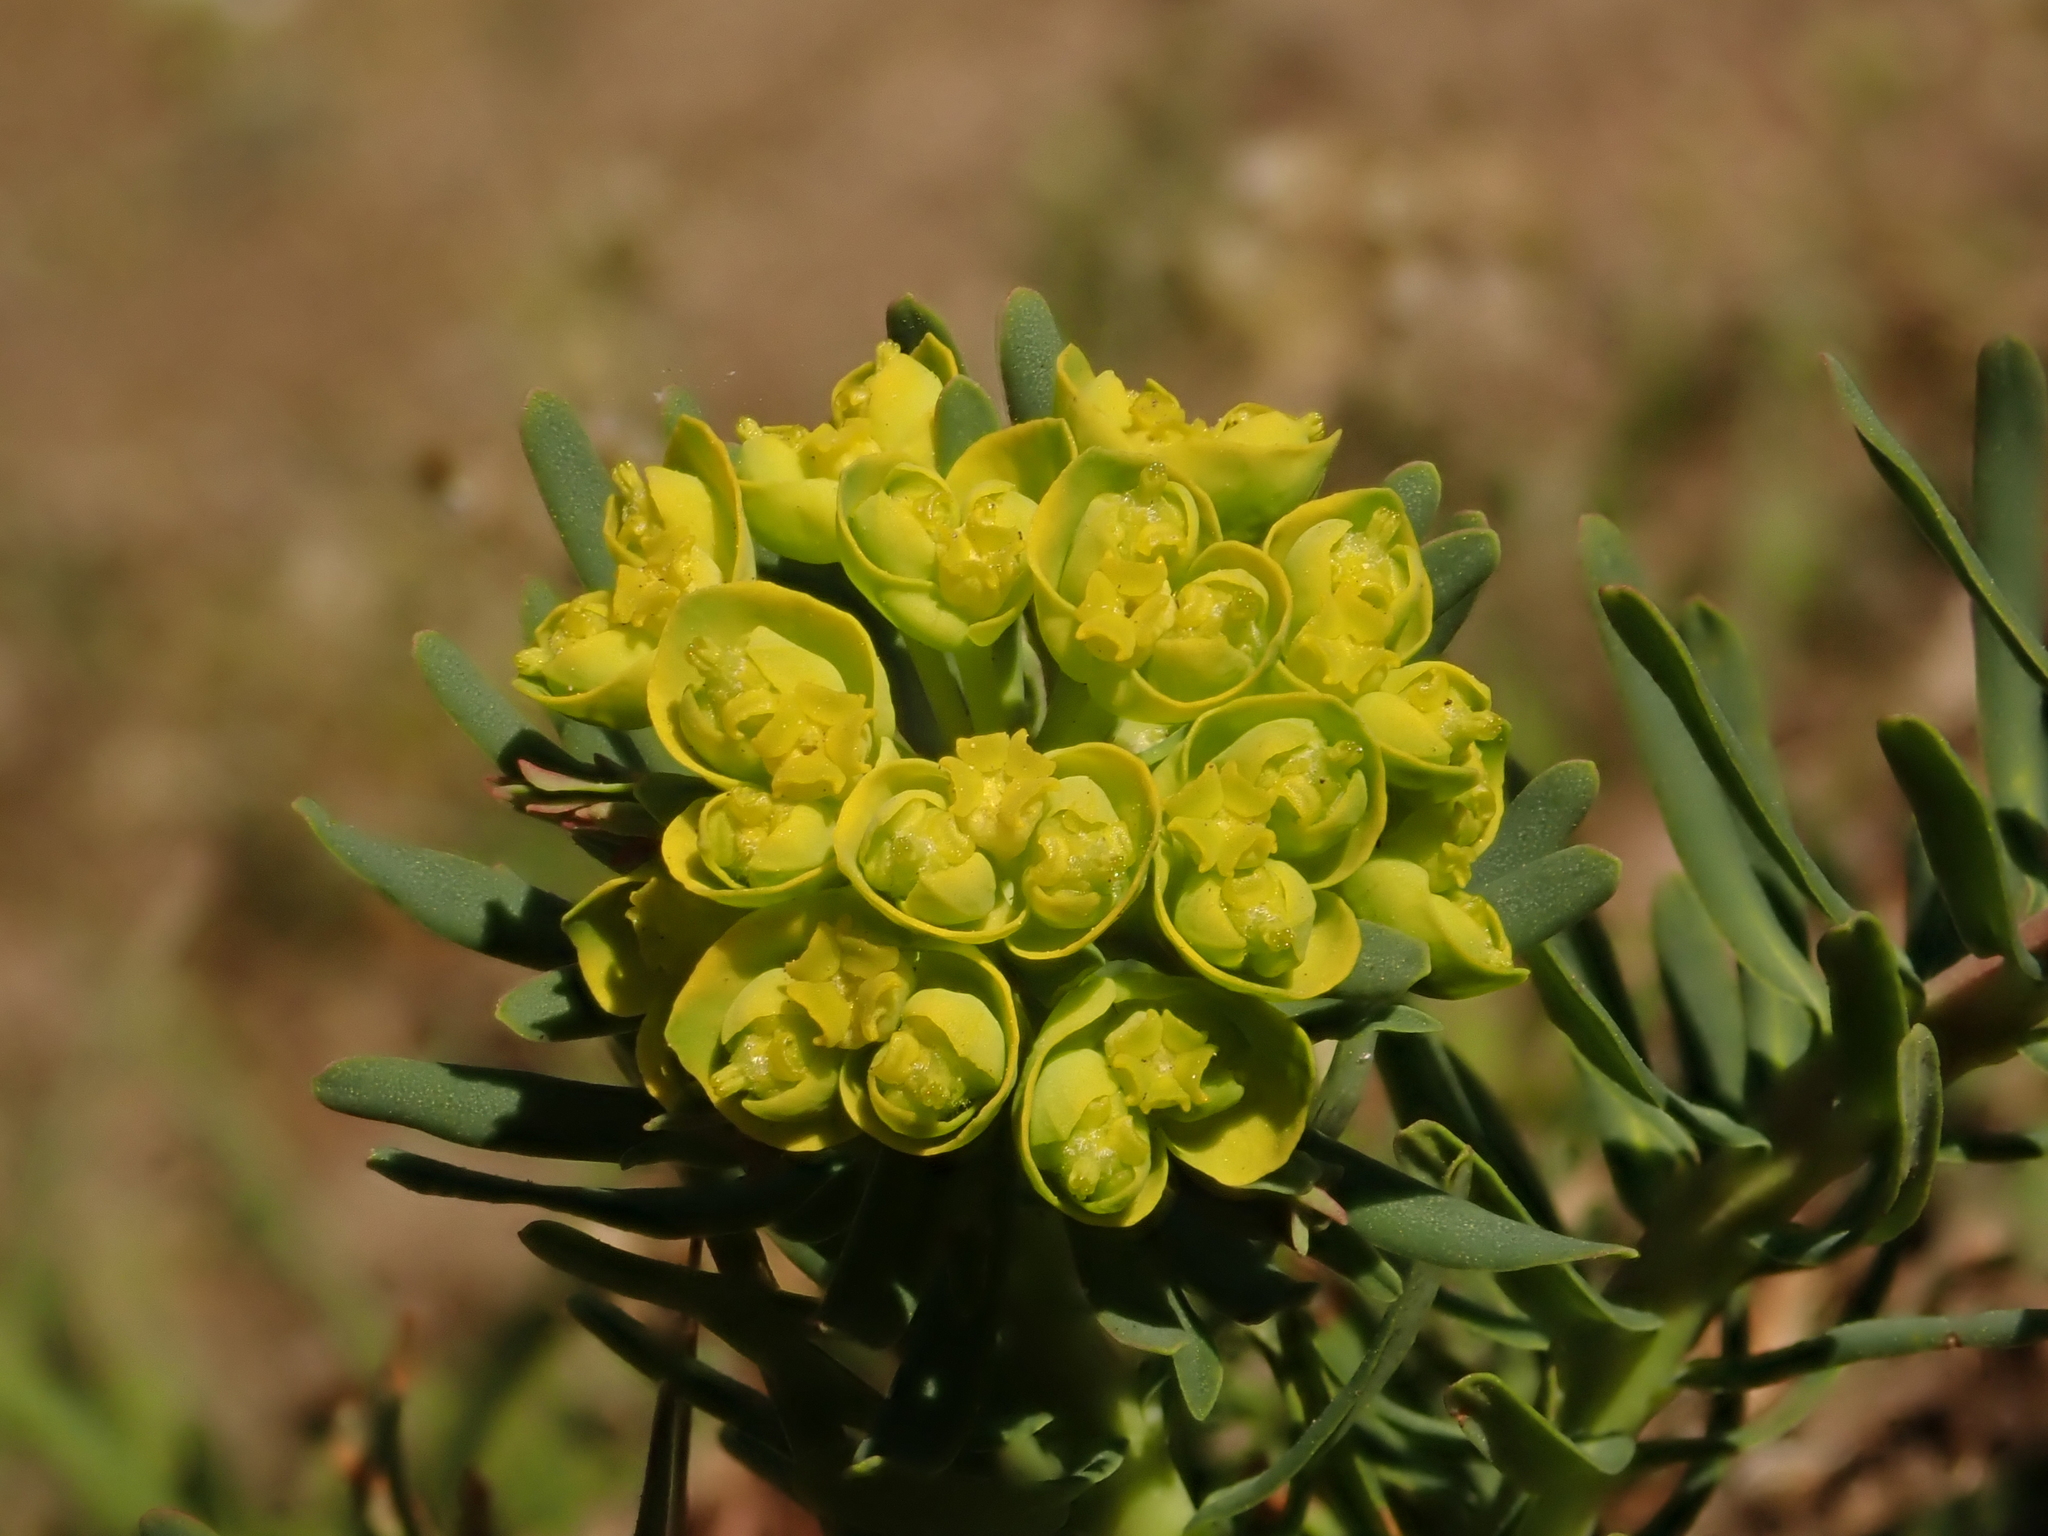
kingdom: Plantae
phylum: Tracheophyta
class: Magnoliopsida
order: Malpighiales
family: Euphorbiaceae
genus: Euphorbia
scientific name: Euphorbia cyparissias
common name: Cypress spurge
